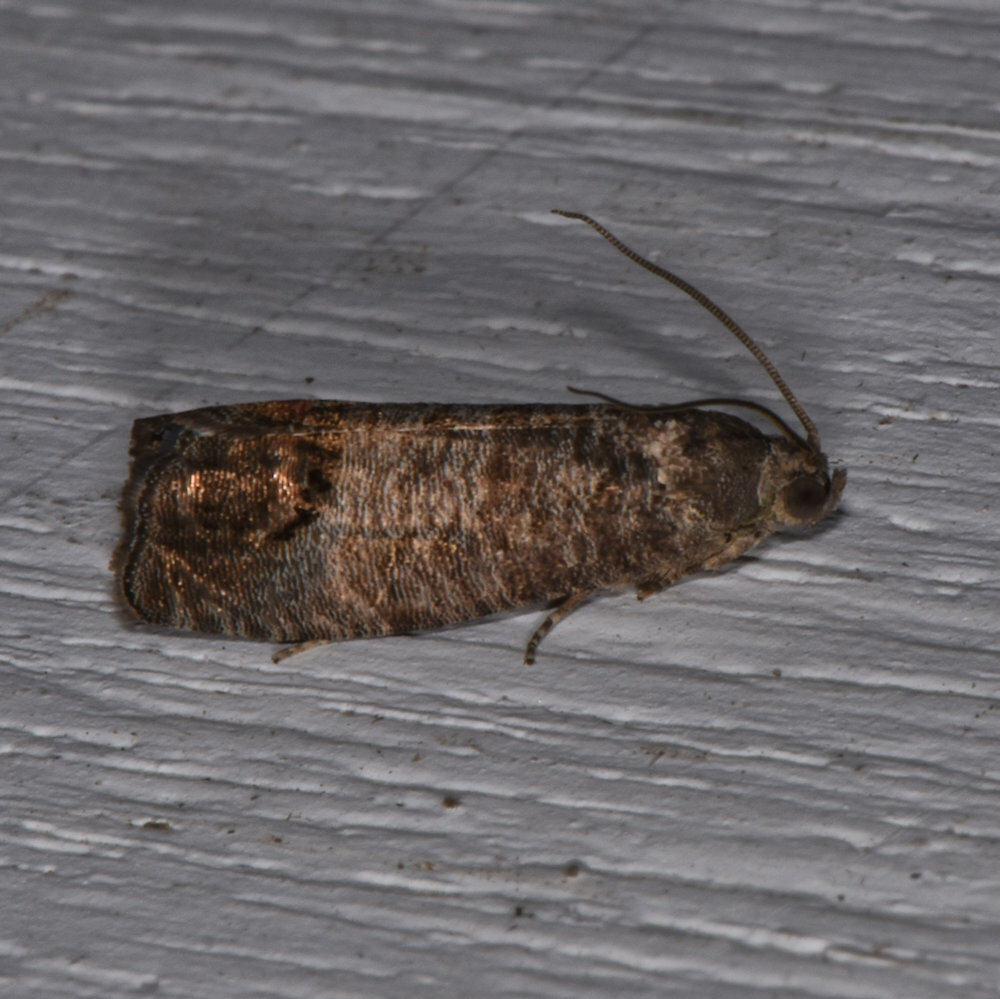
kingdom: Animalia
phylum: Arthropoda
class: Insecta
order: Lepidoptera
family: Tortricidae
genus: Cydia
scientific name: Cydia pomonella
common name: Codling moth
